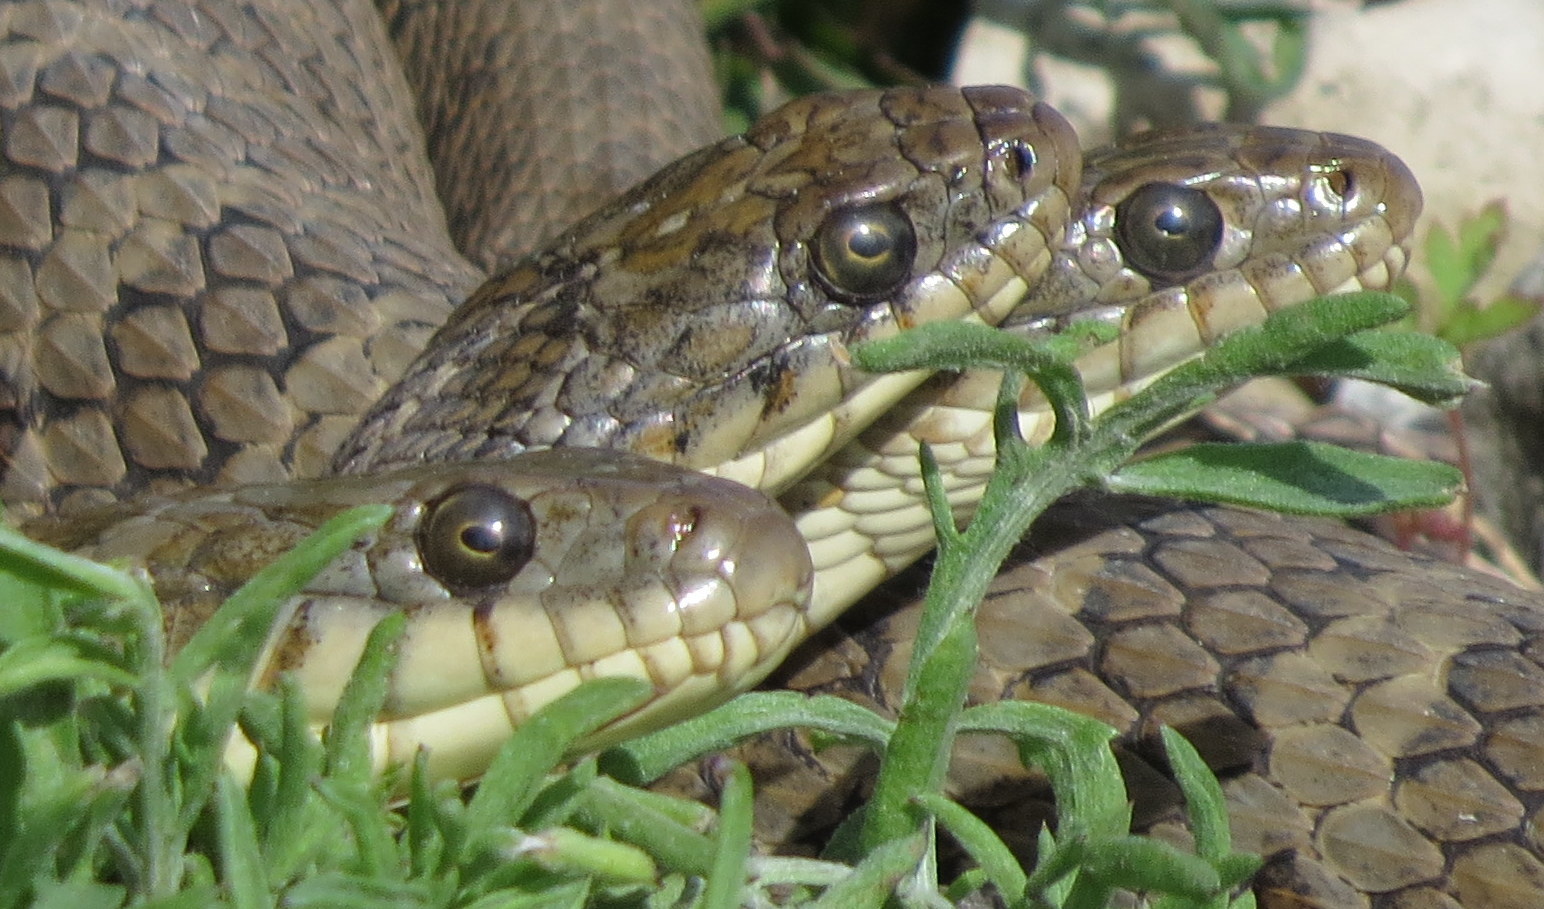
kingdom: Animalia
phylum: Chordata
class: Squamata
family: Colubridae
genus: Nerodia
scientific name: Nerodia sipedon
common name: Northern water snake
